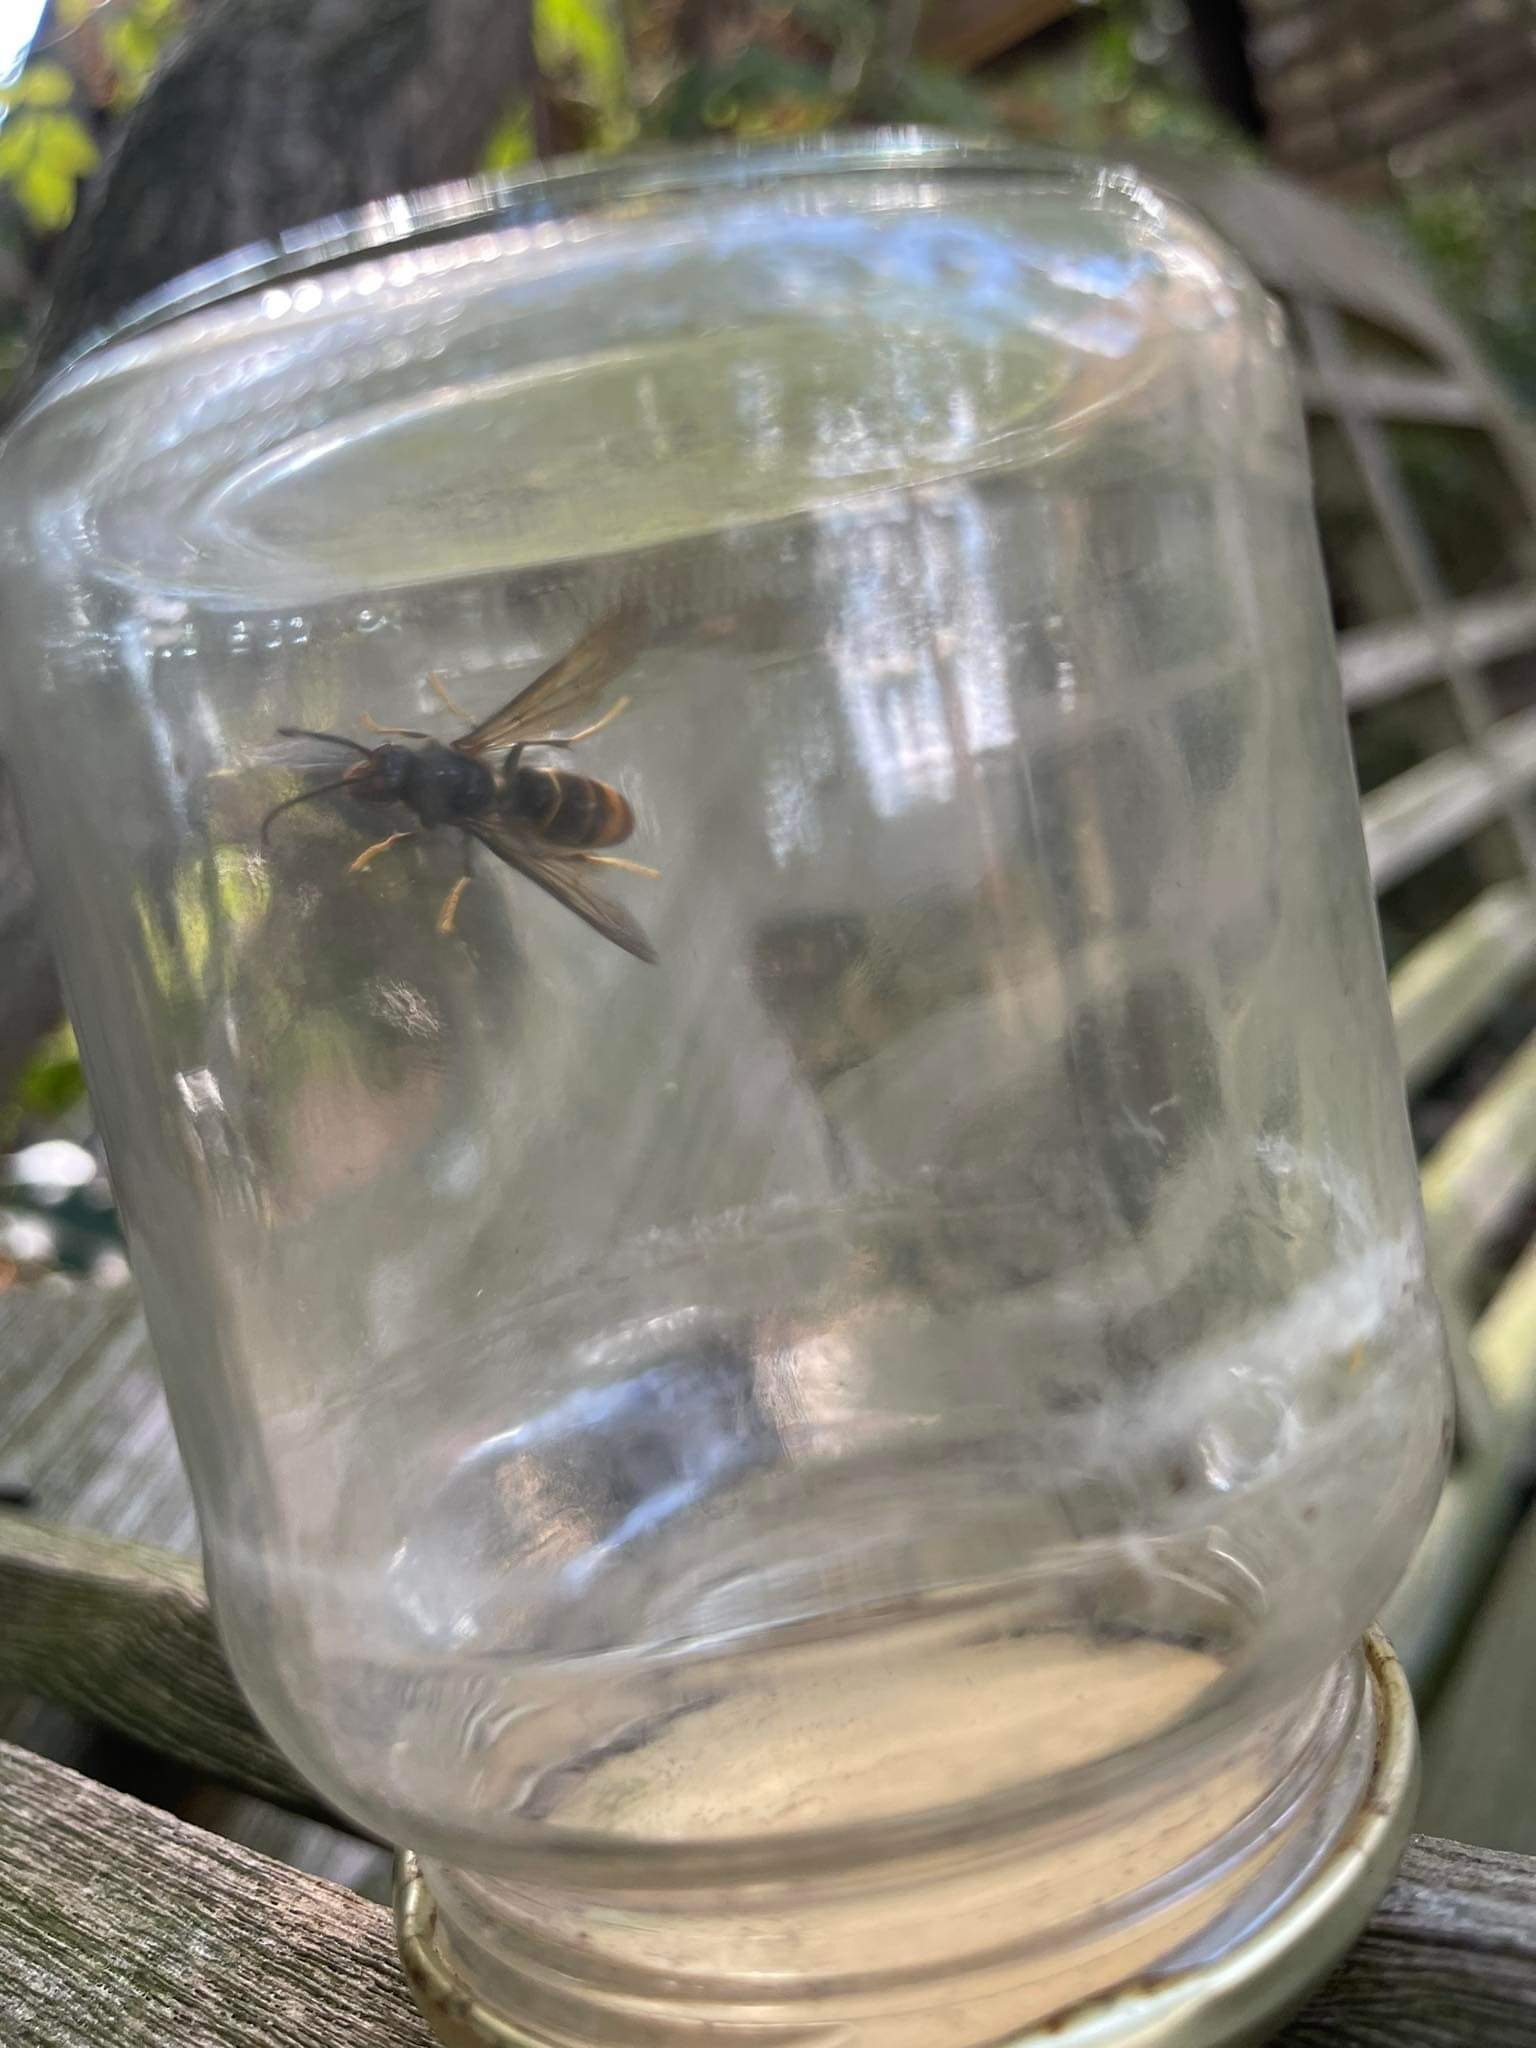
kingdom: Animalia
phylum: Arthropoda
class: Insecta
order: Hymenoptera
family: Vespidae
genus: Vespa
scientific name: Vespa velutina
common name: Asian hornet
